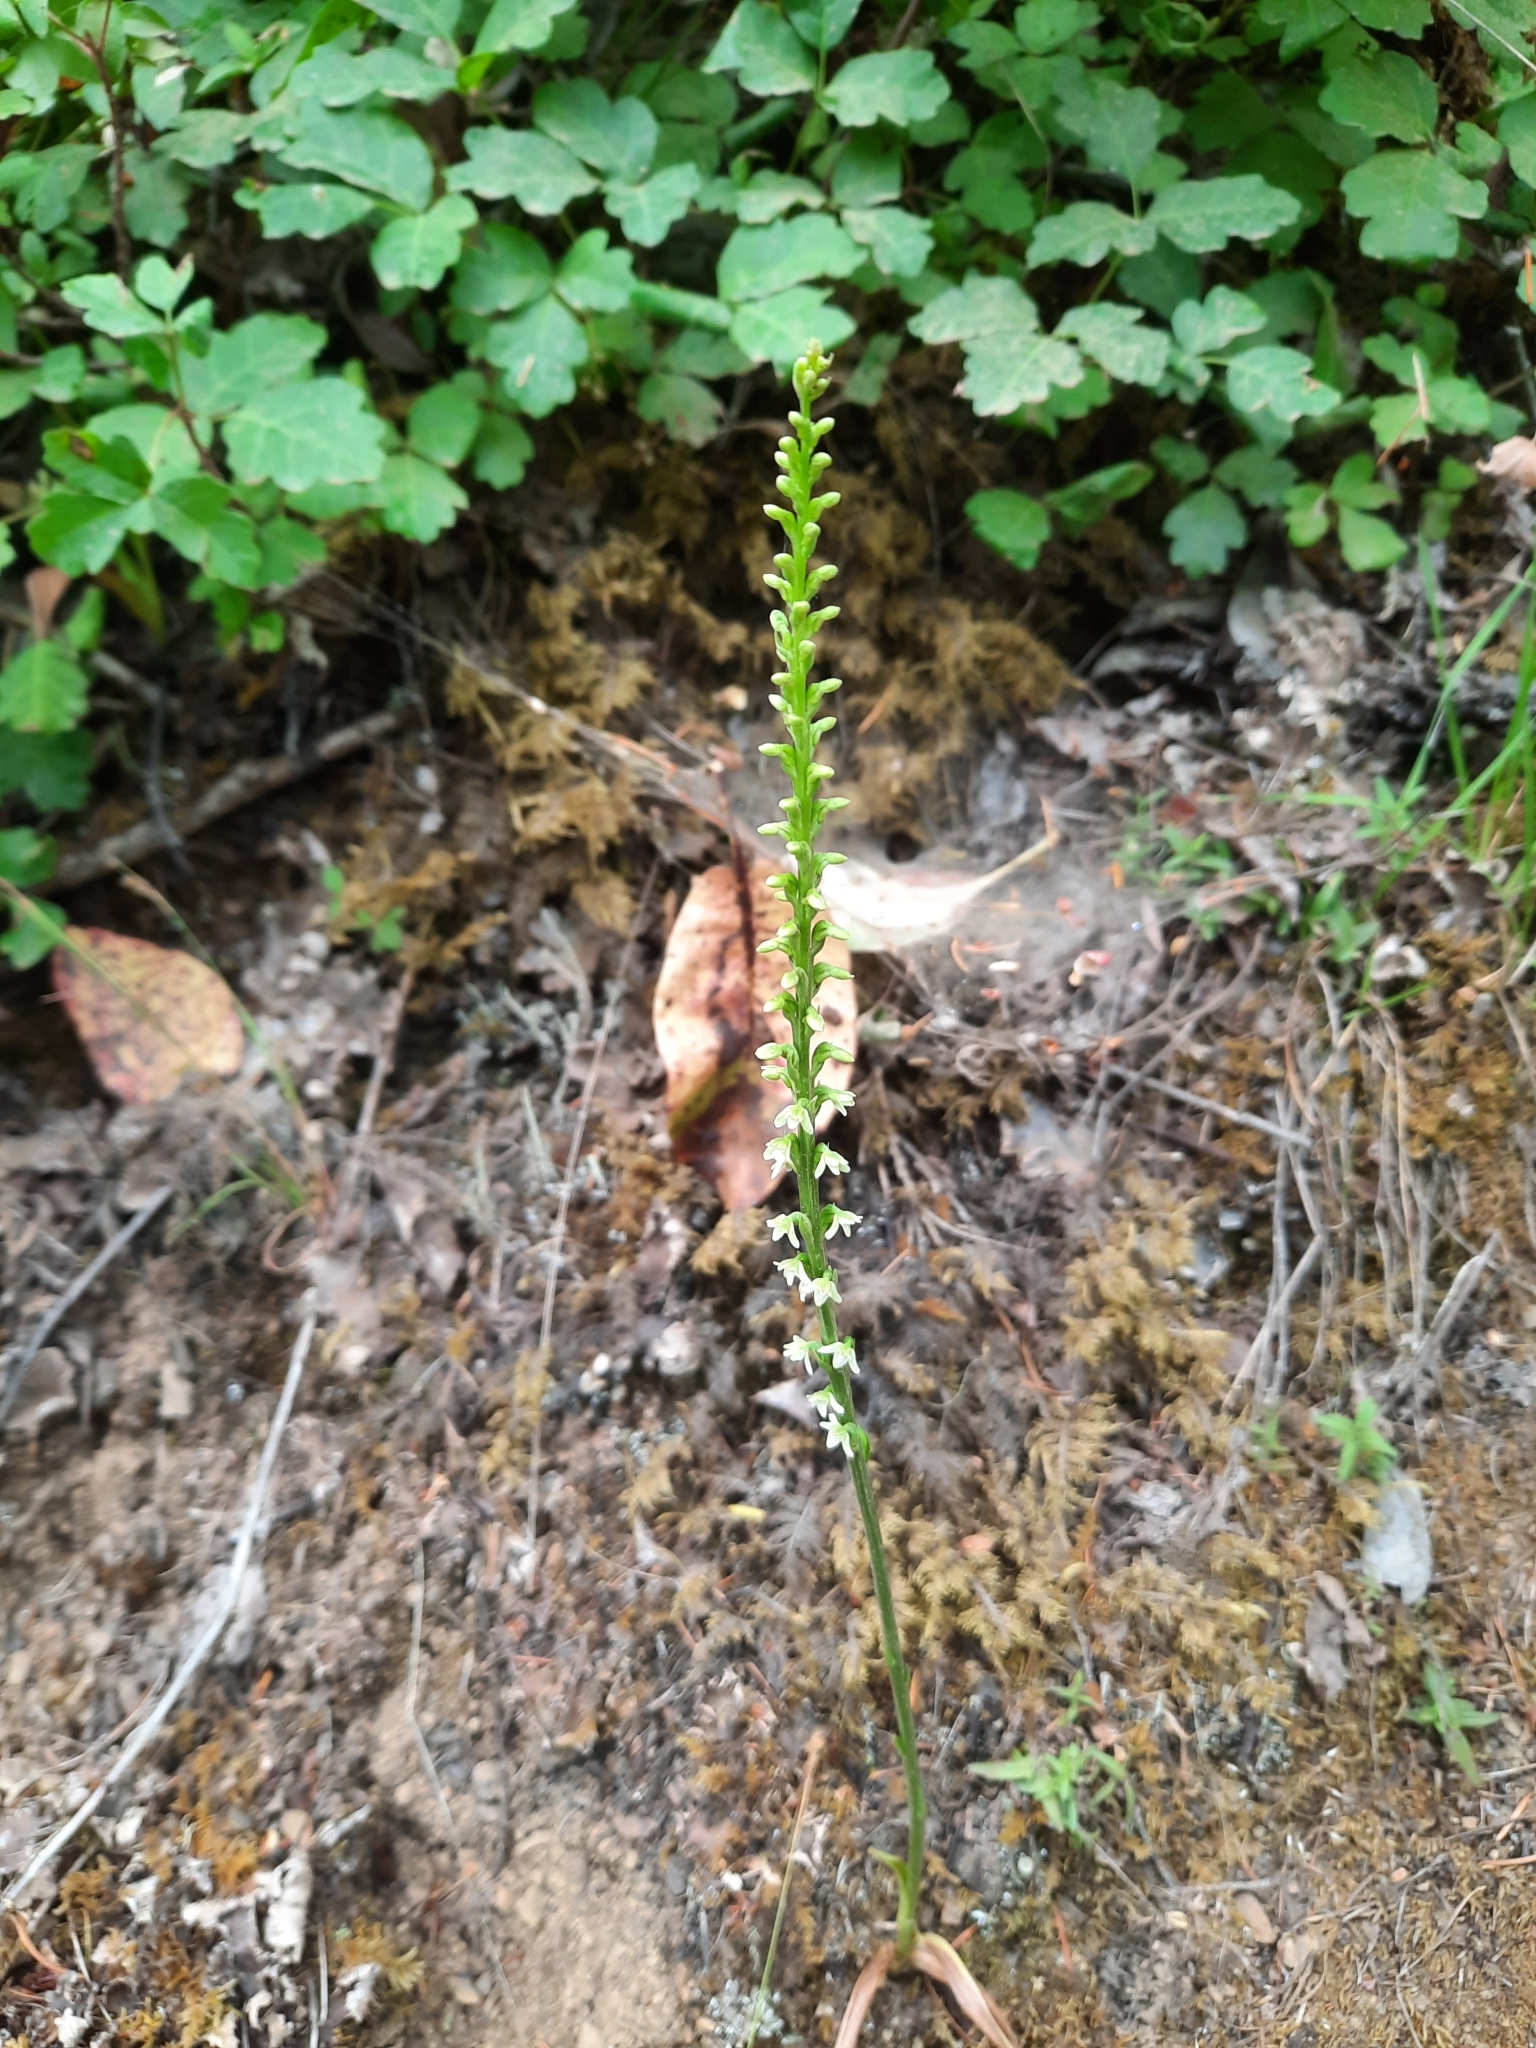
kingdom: Plantae
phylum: Tracheophyta
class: Liliopsida
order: Asparagales
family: Orchidaceae
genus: Platanthera
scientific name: Platanthera ephemerantha
